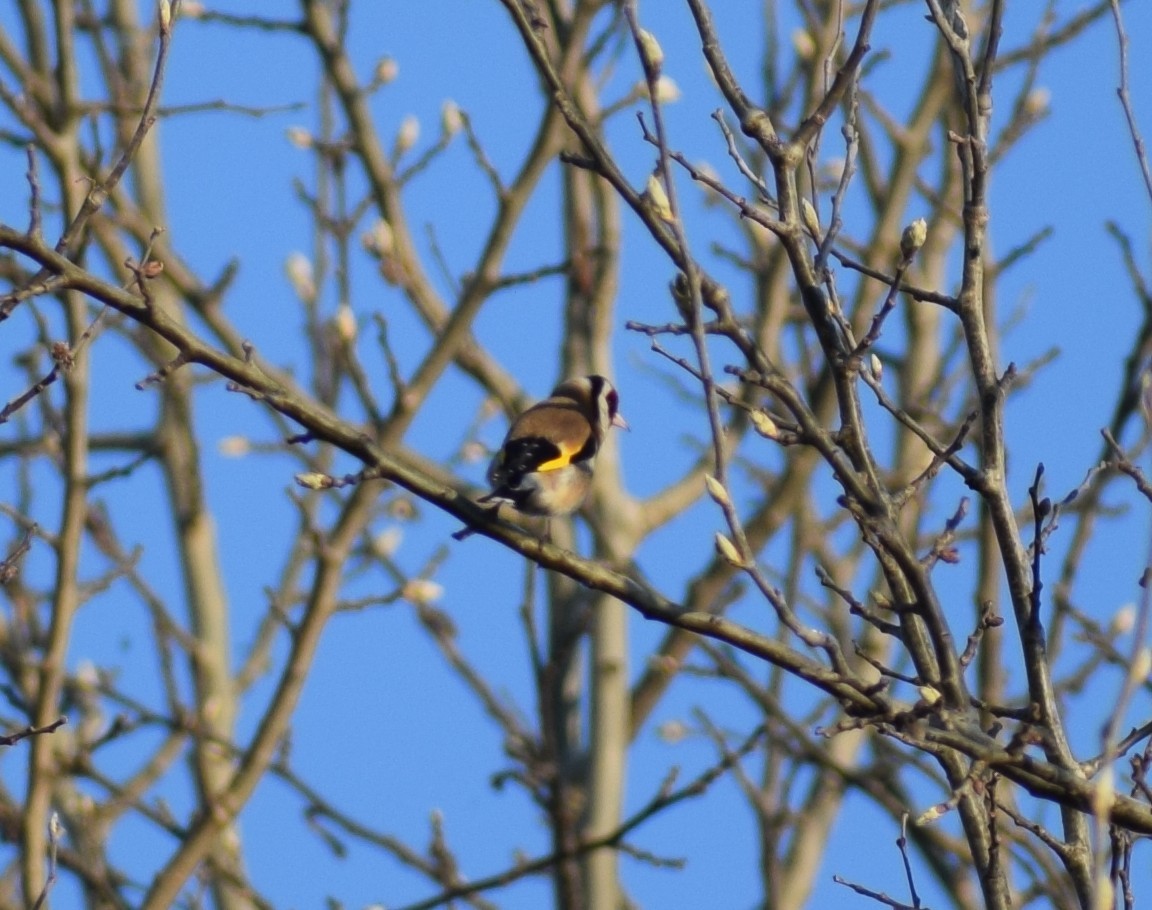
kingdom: Animalia
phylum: Chordata
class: Aves
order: Passeriformes
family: Fringillidae
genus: Carduelis
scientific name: Carduelis carduelis
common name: European goldfinch
